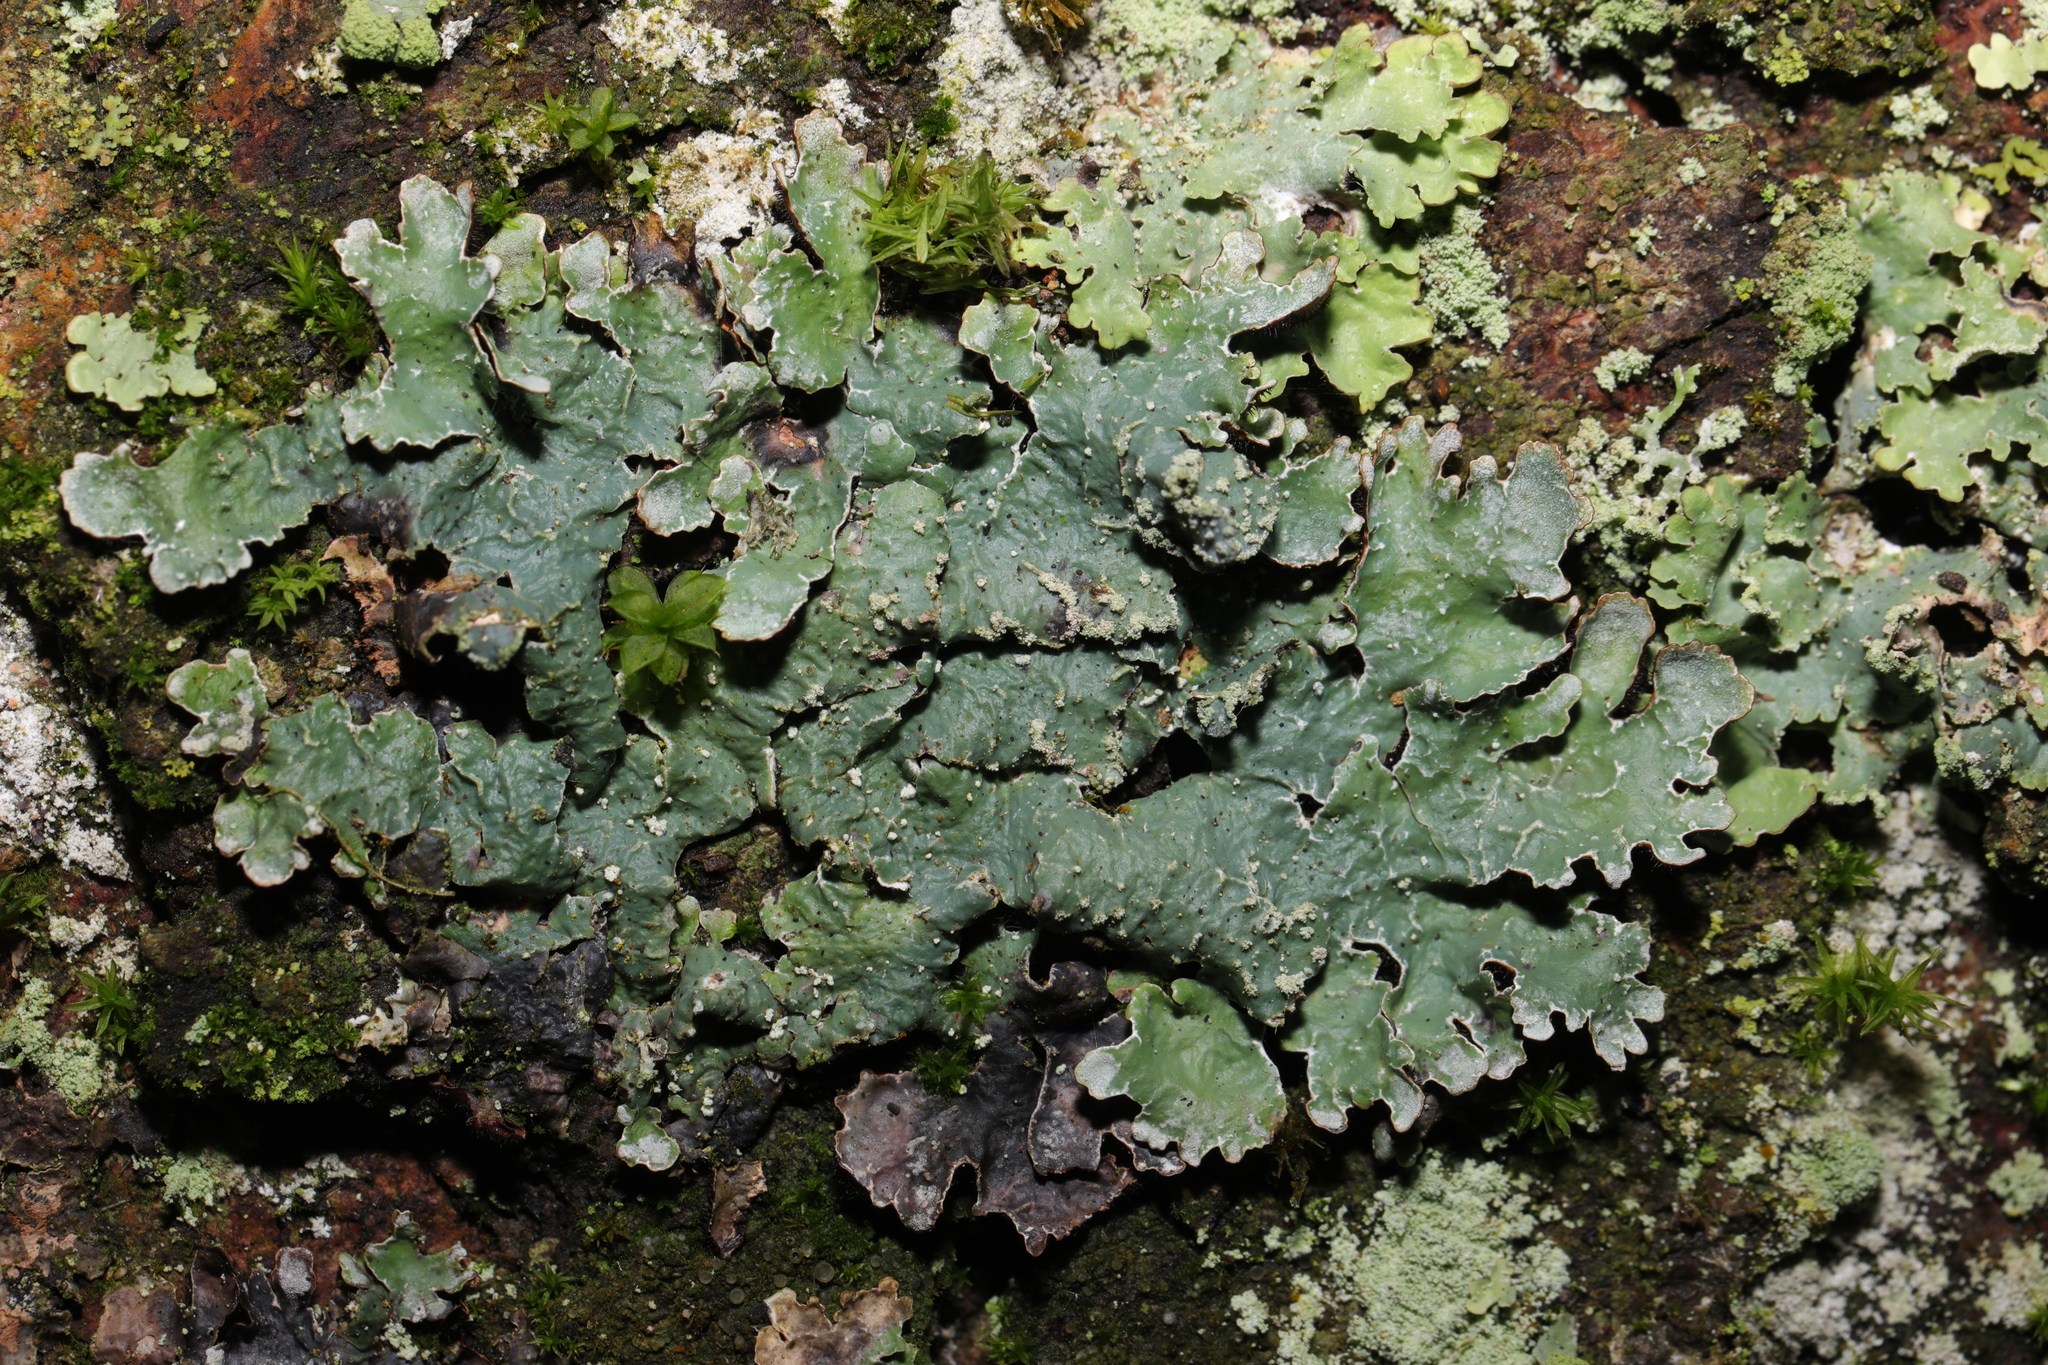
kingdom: Fungi
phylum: Ascomycota
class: Lecanoromycetes
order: Lecanorales
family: Parmeliaceae
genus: Parmelia
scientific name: Parmelia sulcata
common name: Netted shield lichen
